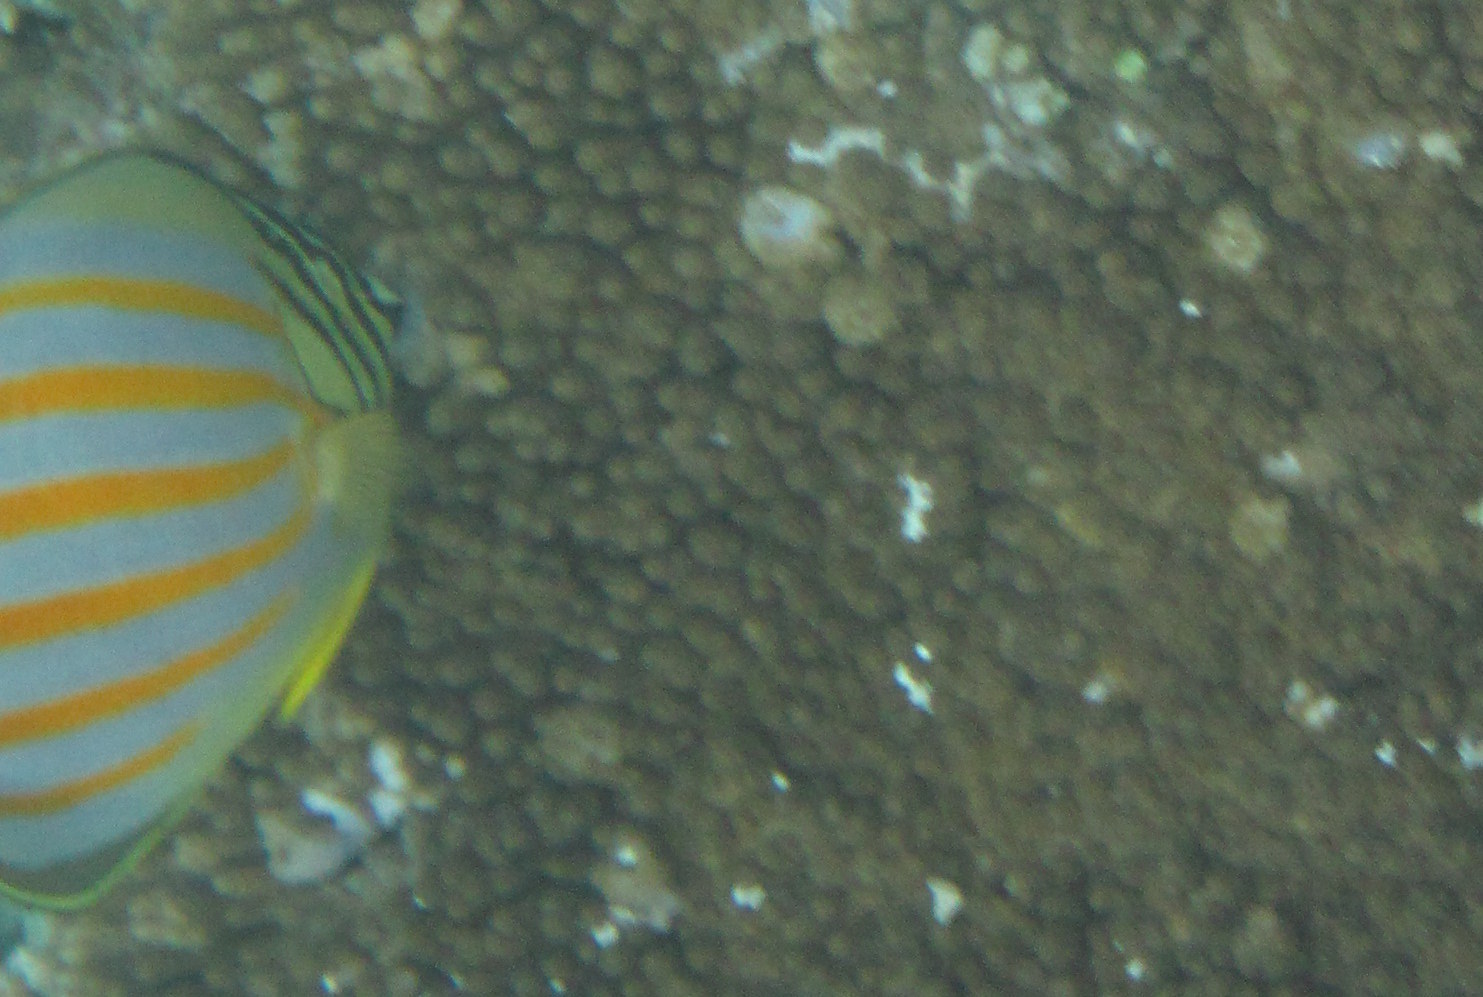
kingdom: Animalia
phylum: Chordata
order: Perciformes
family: Chaetodontidae
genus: Chaetodon
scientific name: Chaetodon ornatissimus
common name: Ornate butterflyfish
